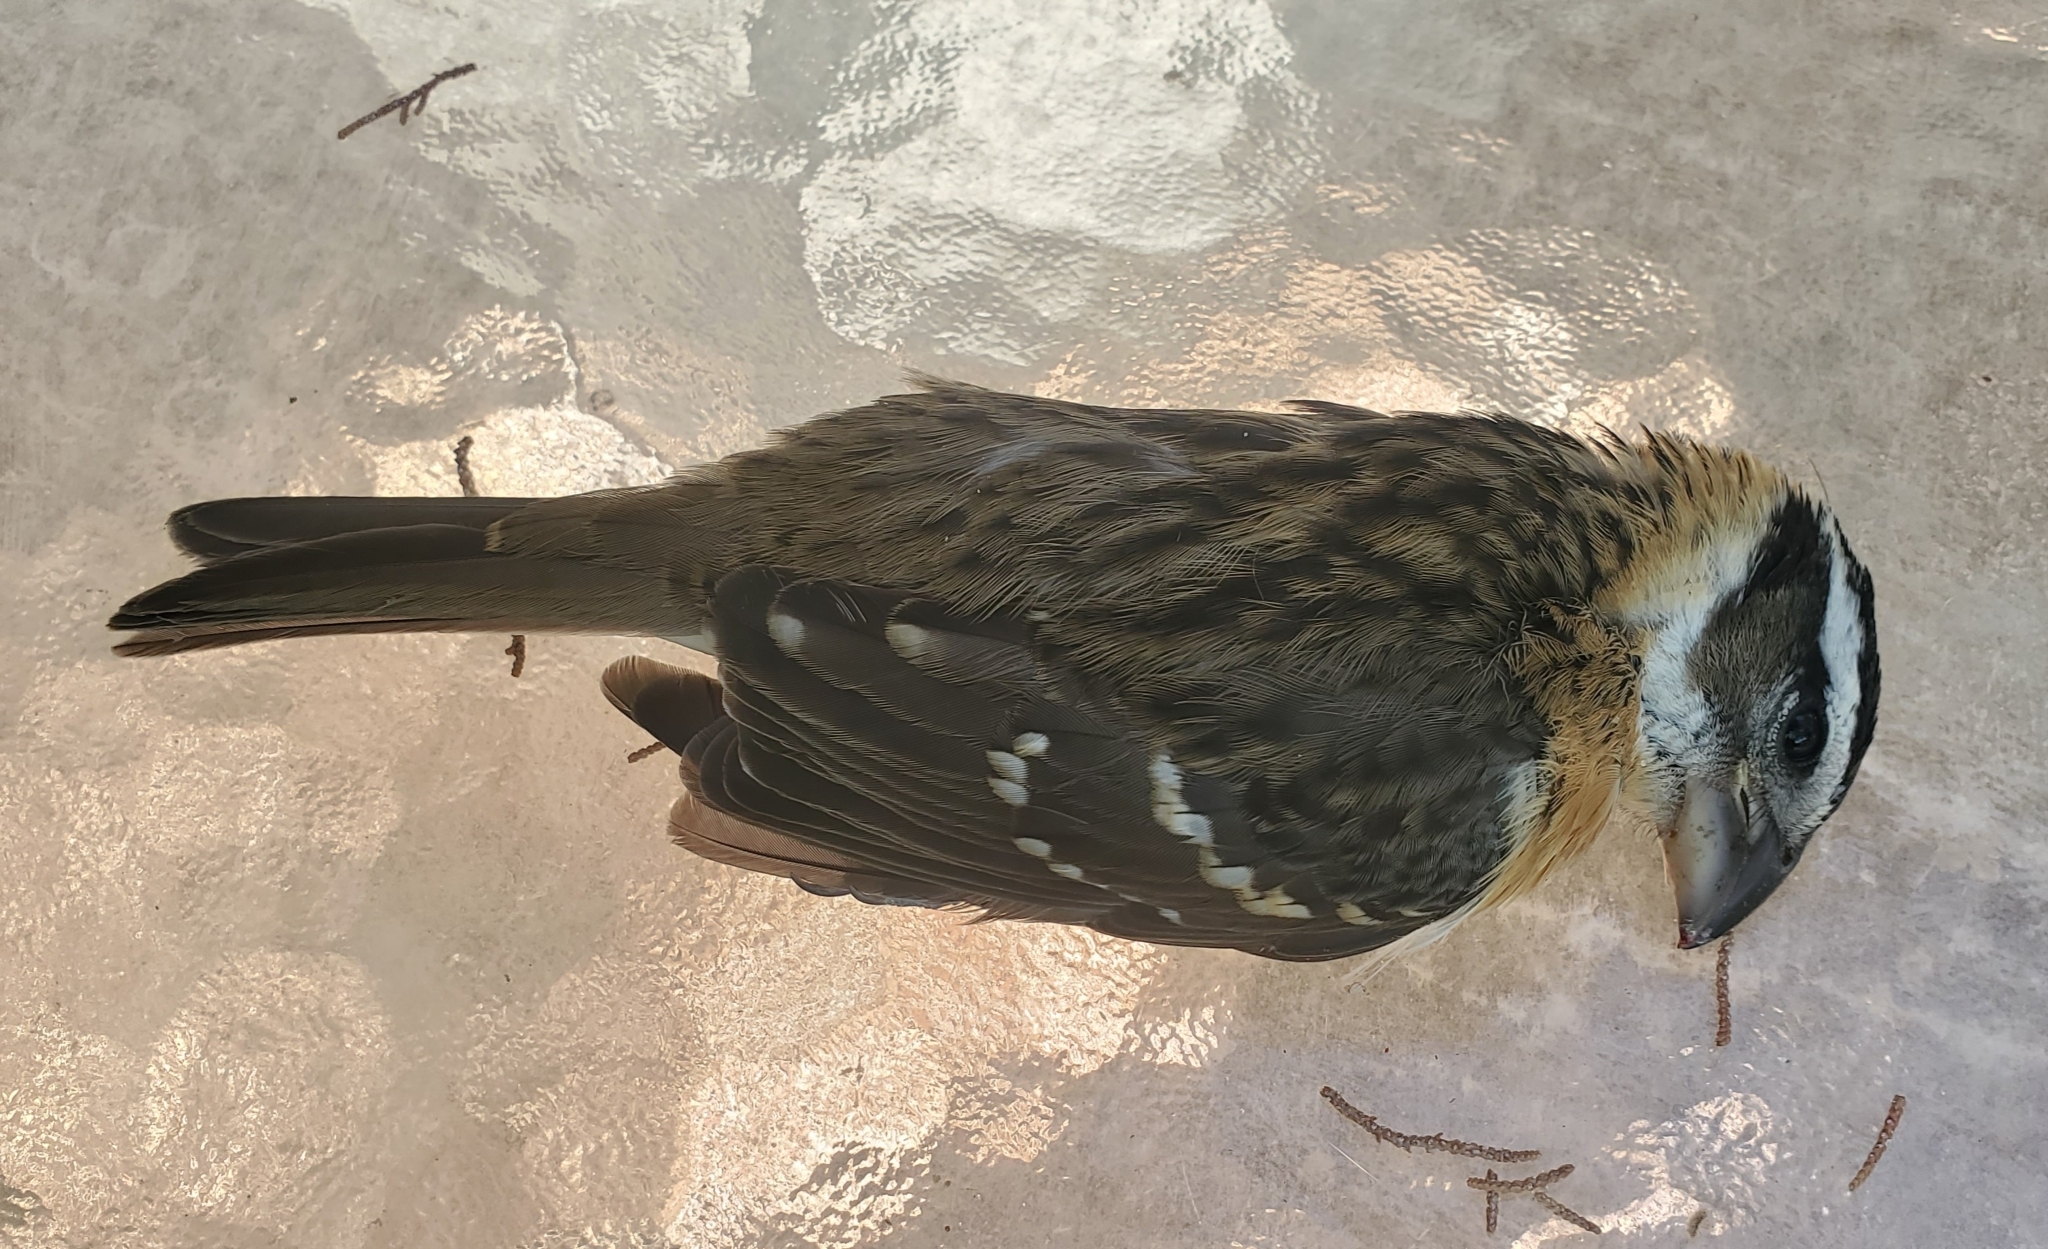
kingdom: Animalia
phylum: Chordata
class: Aves
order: Passeriformes
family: Cardinalidae
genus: Pheucticus
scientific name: Pheucticus melanocephalus
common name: Black-headed grosbeak
